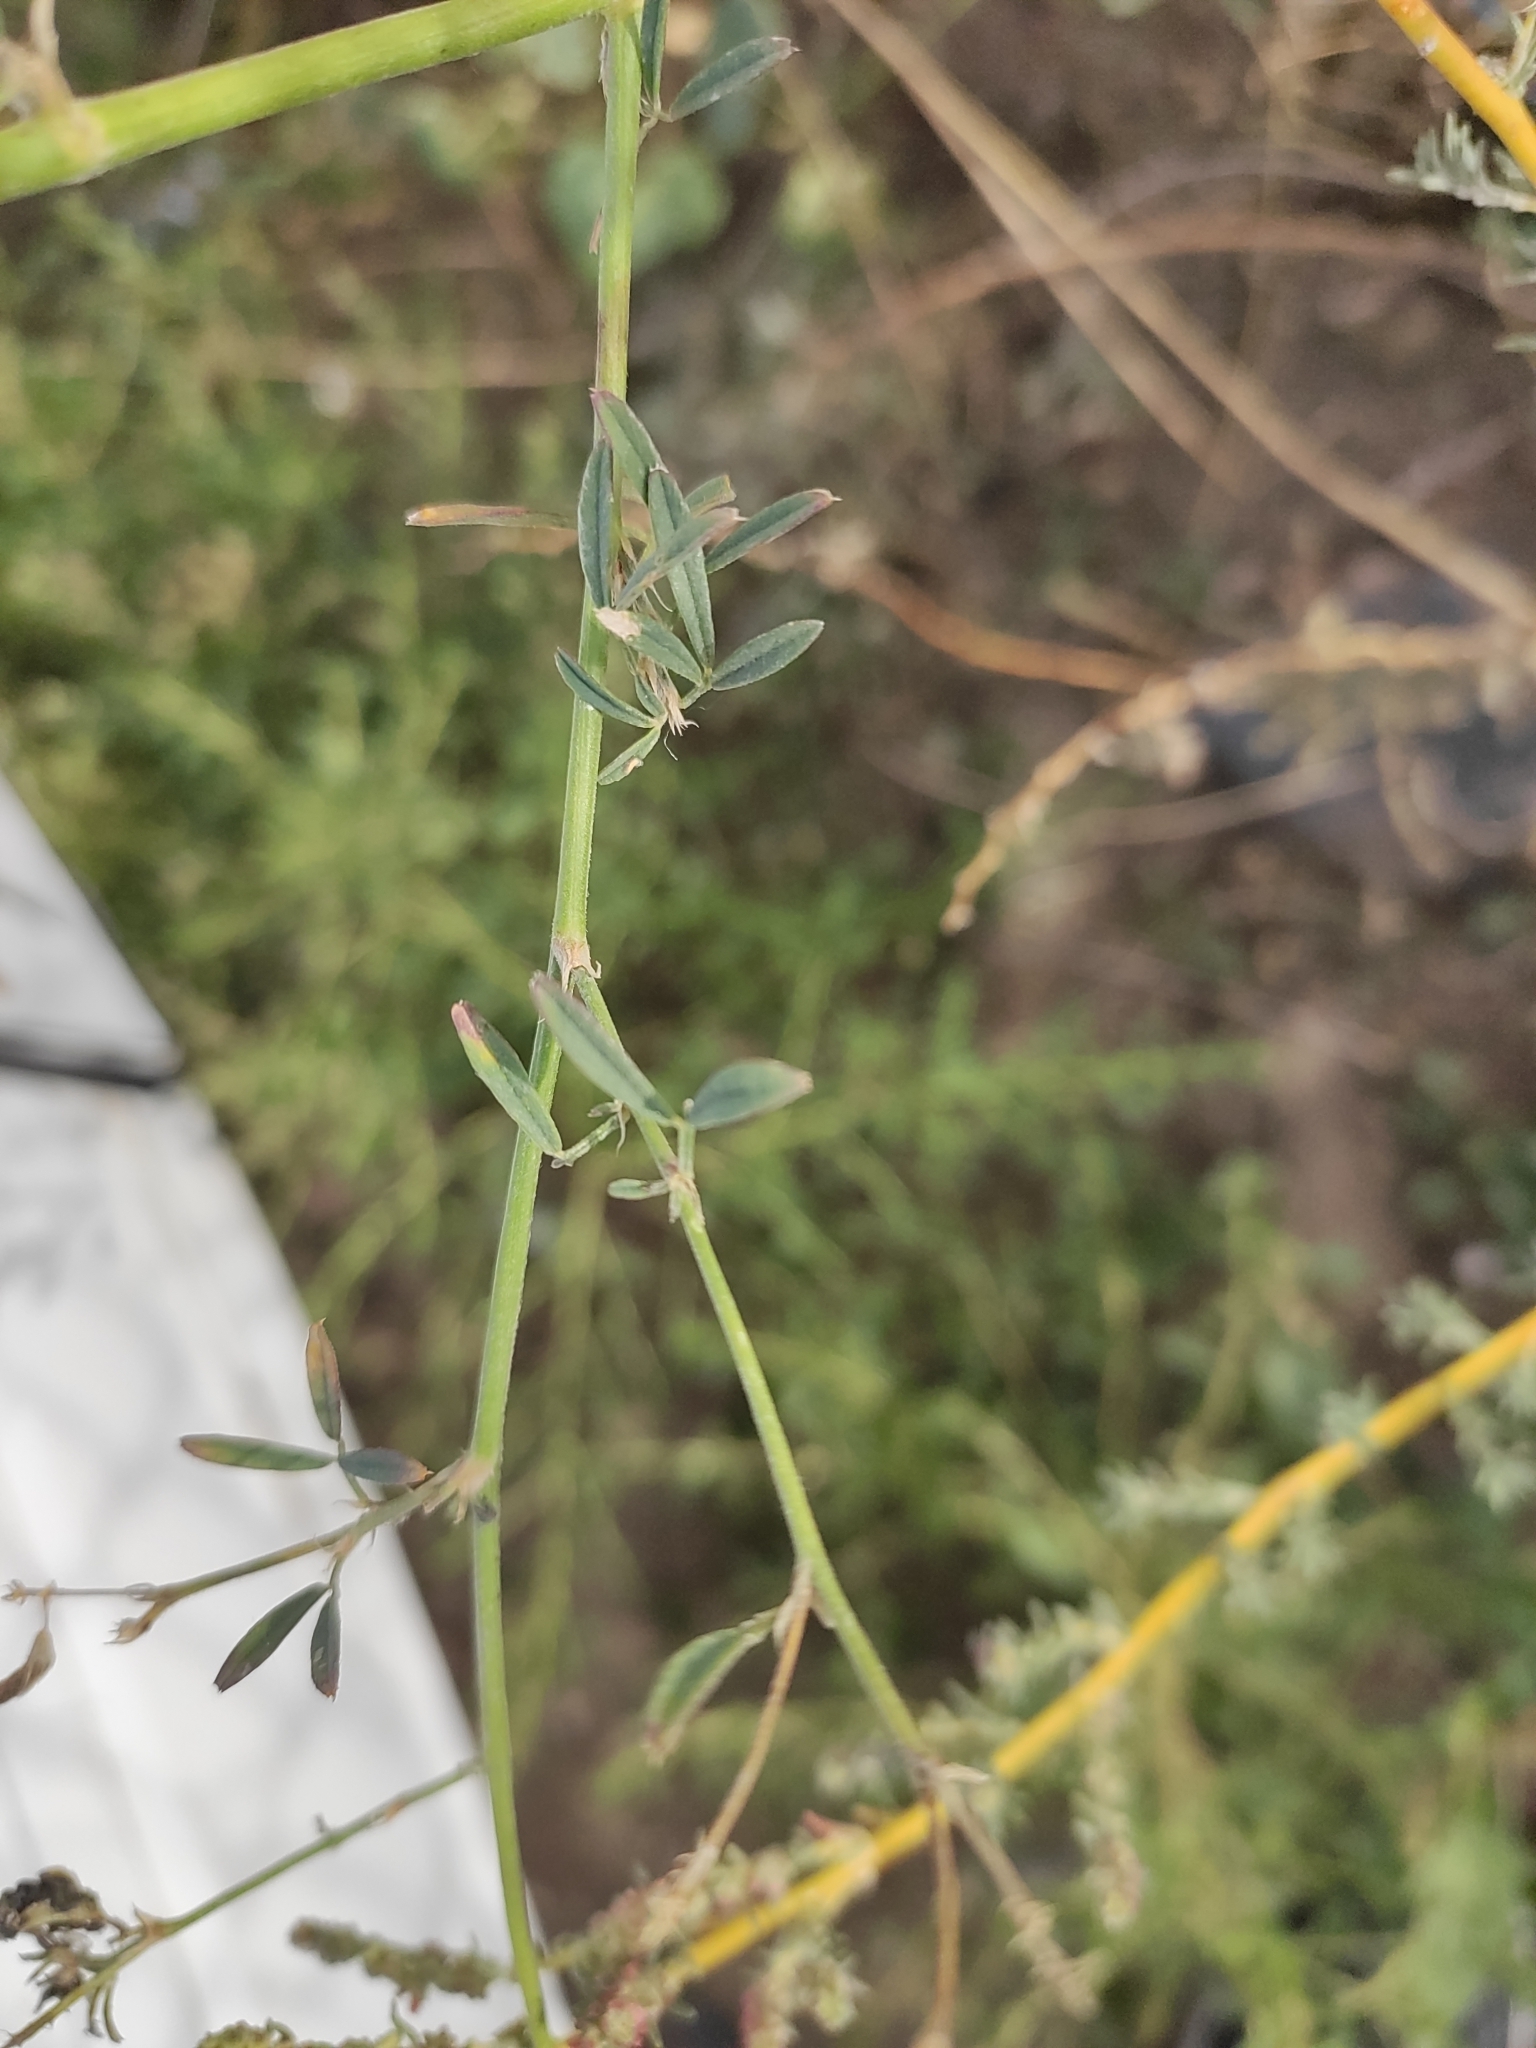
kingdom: Plantae
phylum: Tracheophyta
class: Magnoliopsida
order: Fabales
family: Fabaceae
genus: Medicago
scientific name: Medicago falcata
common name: Sickle medick
